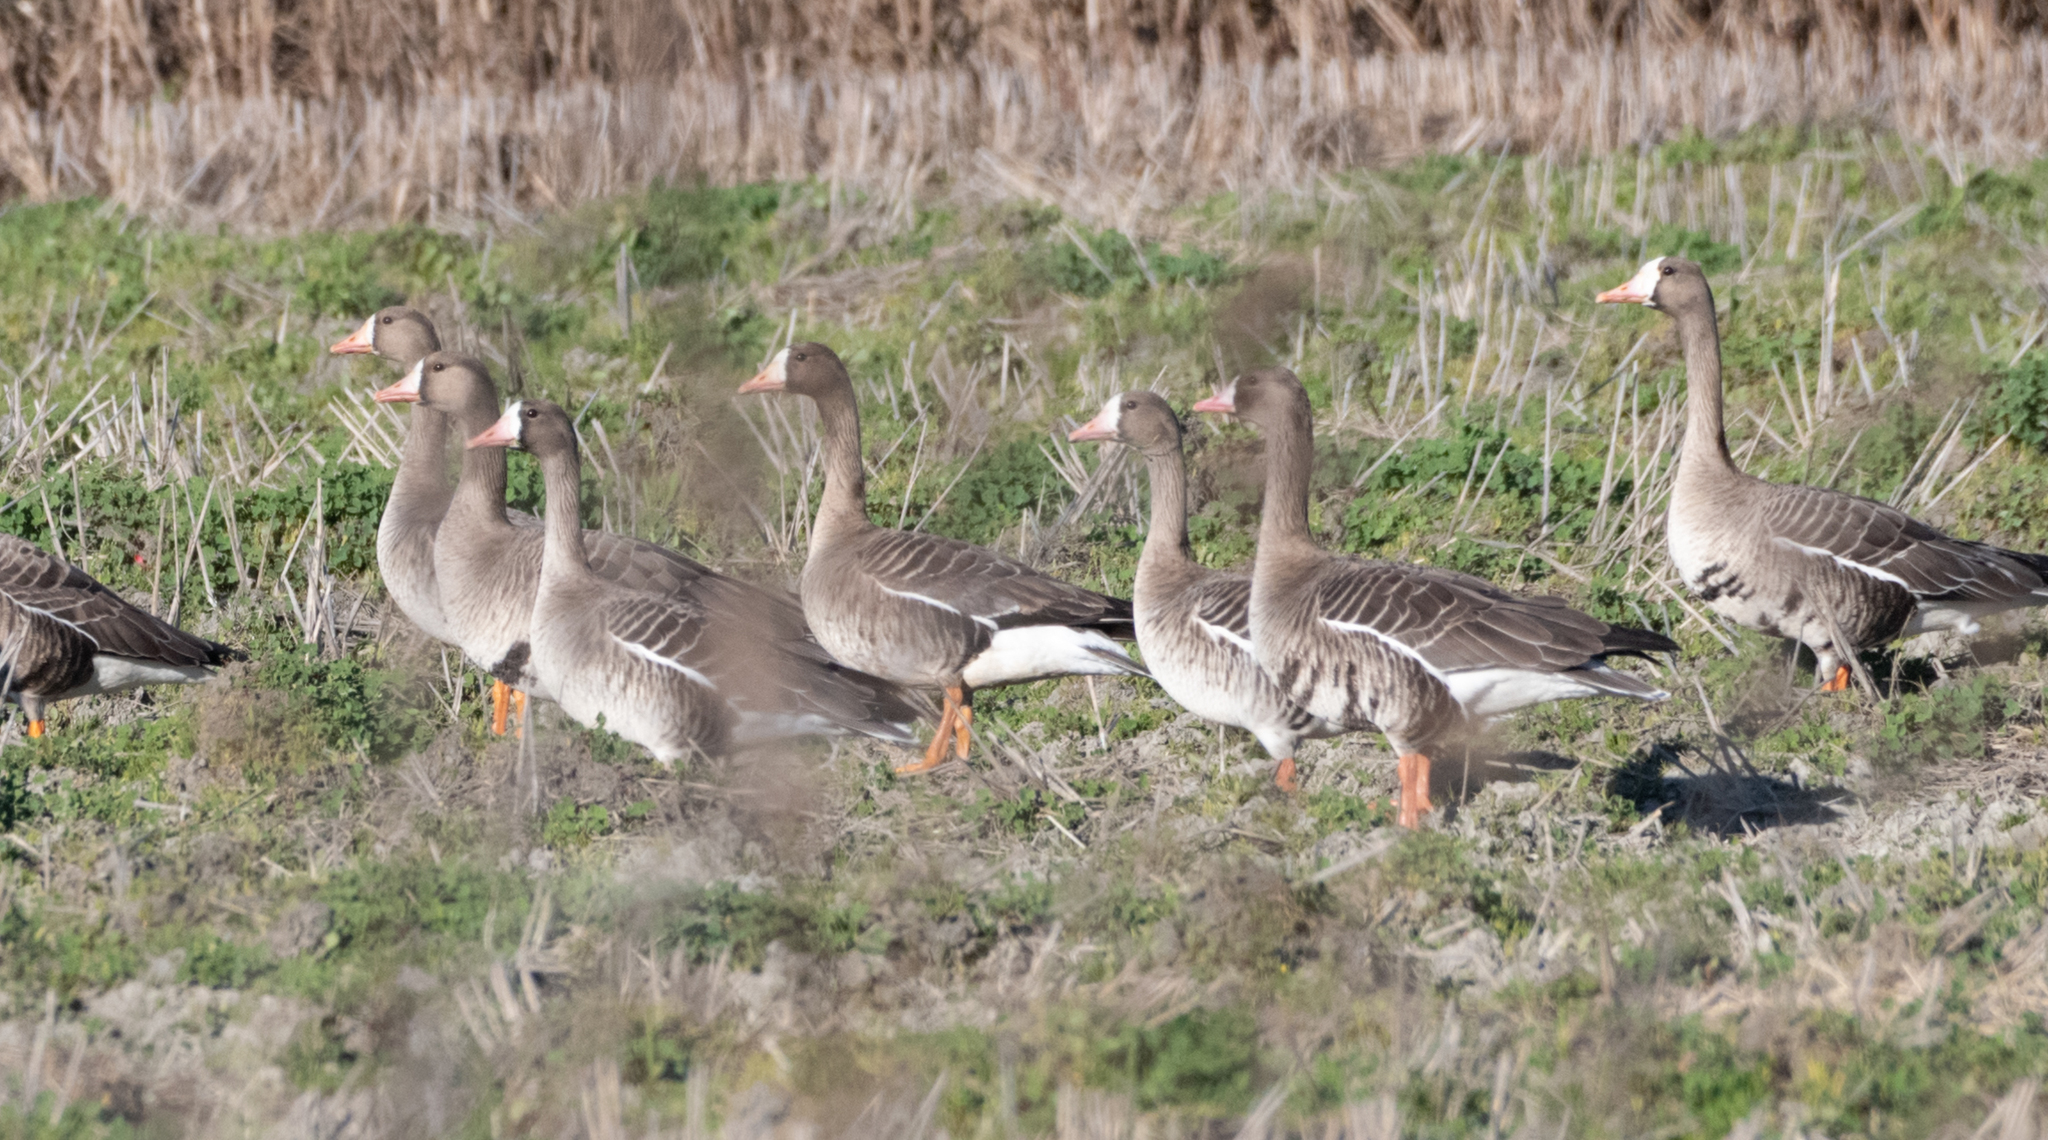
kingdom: Animalia
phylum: Chordata
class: Aves
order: Anseriformes
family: Anatidae
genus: Anser
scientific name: Anser albifrons
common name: Greater white-fronted goose
